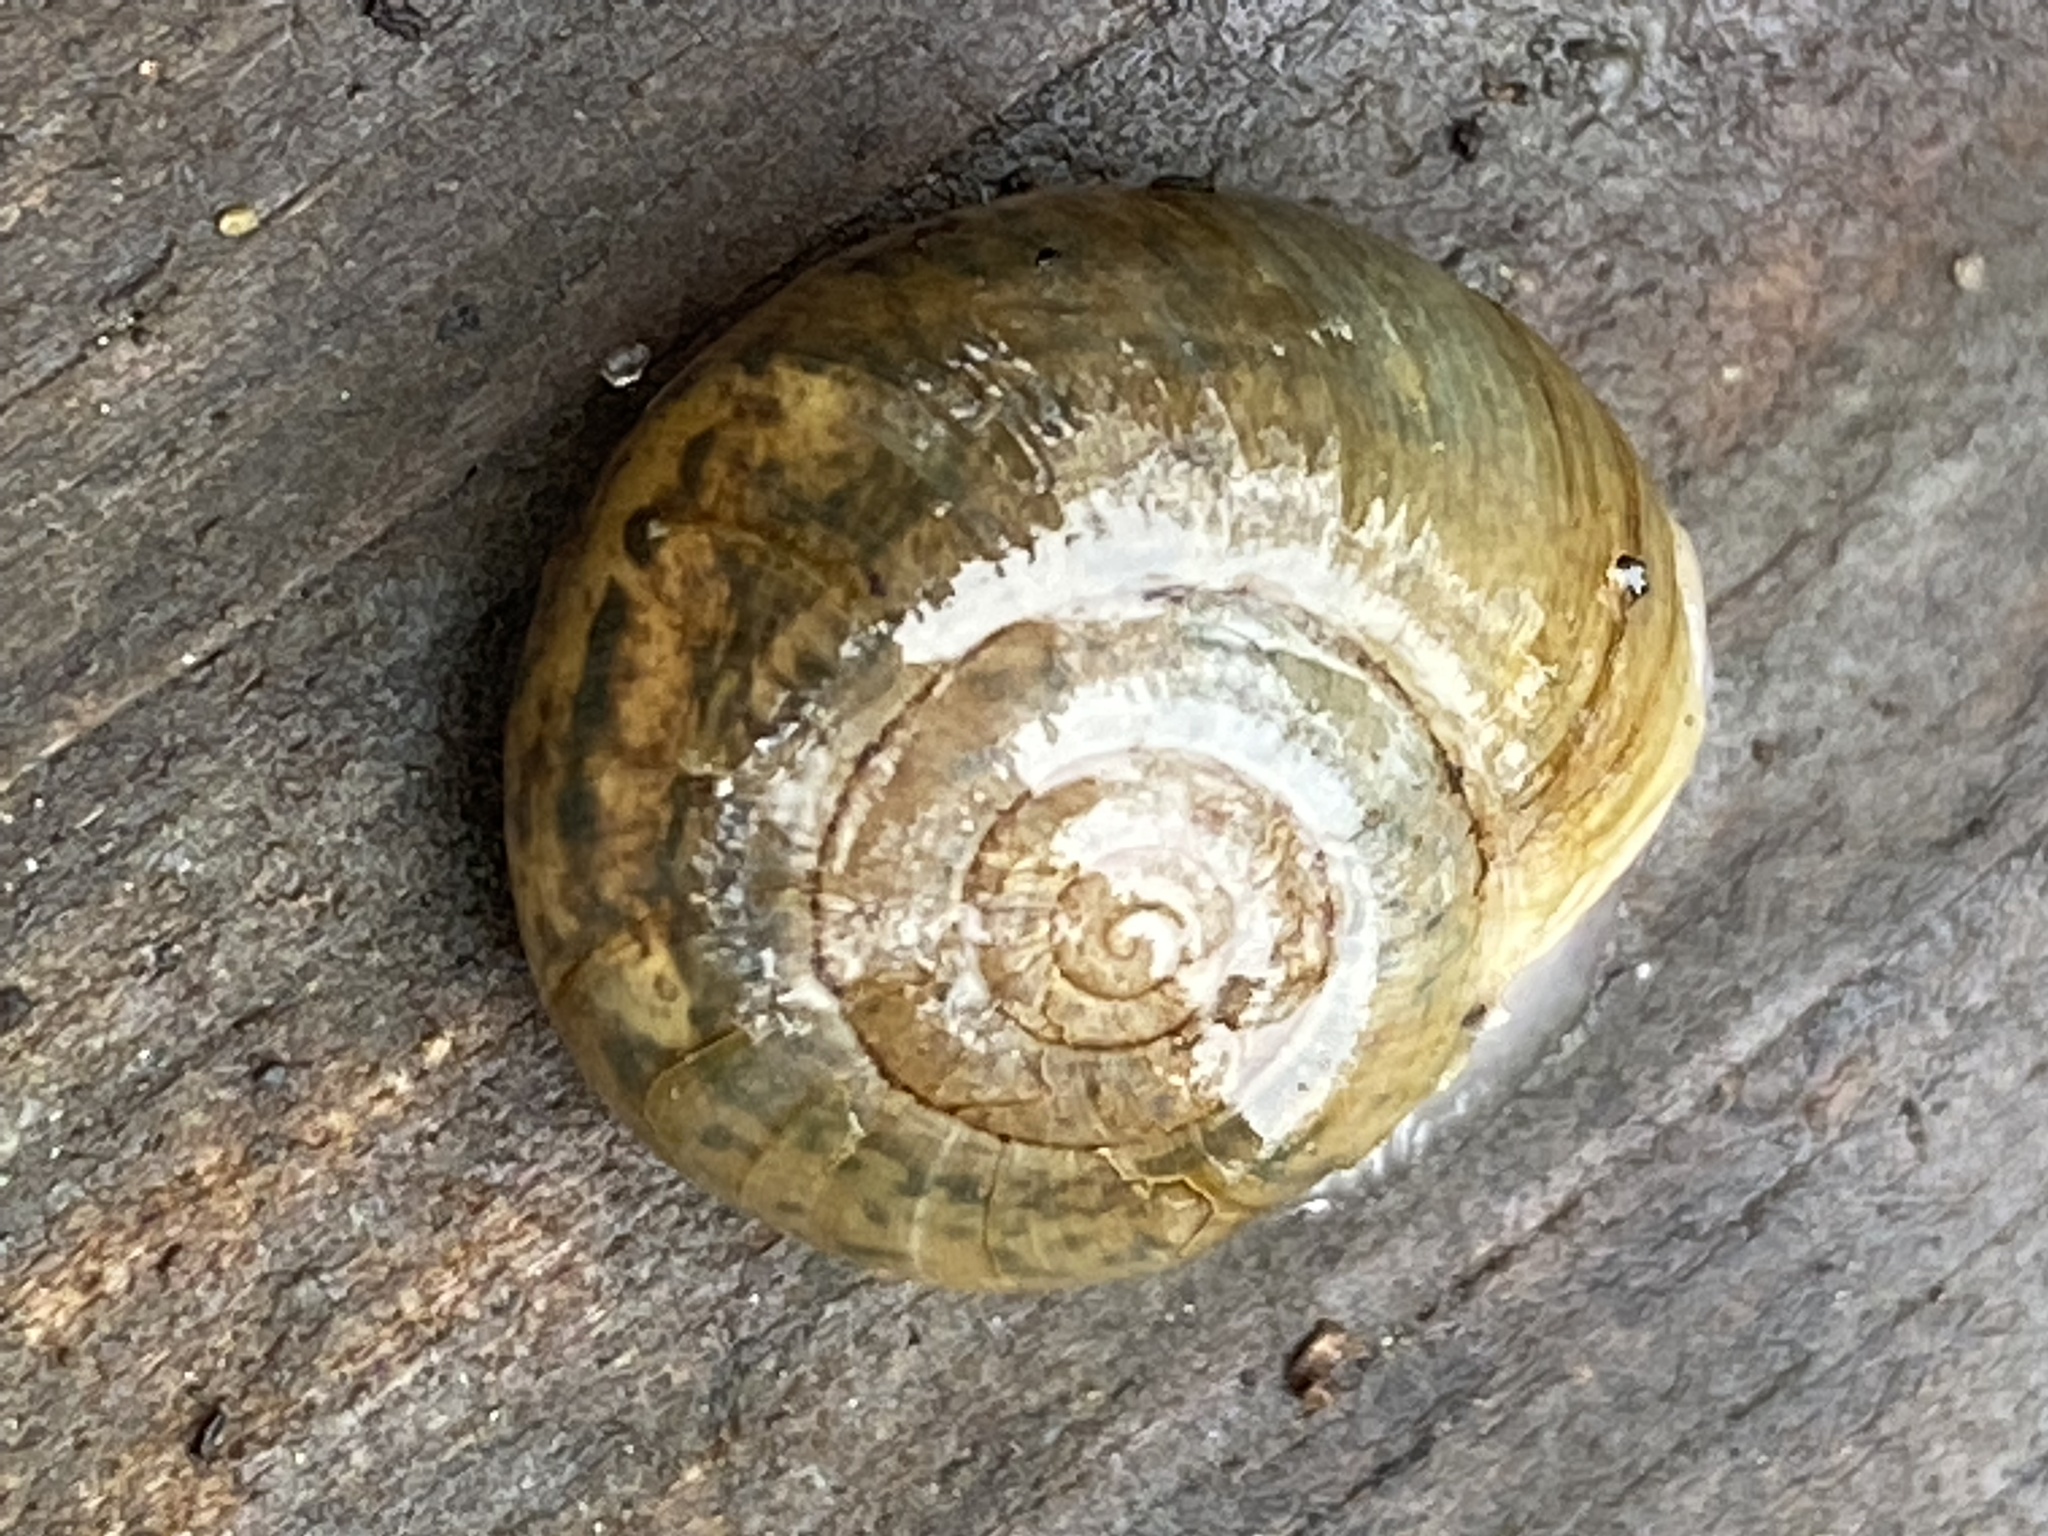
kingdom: Animalia
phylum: Mollusca
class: Gastropoda
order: Stylommatophora
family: Haplotrematidae
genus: Haplotrema
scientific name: Haplotrema minimum
